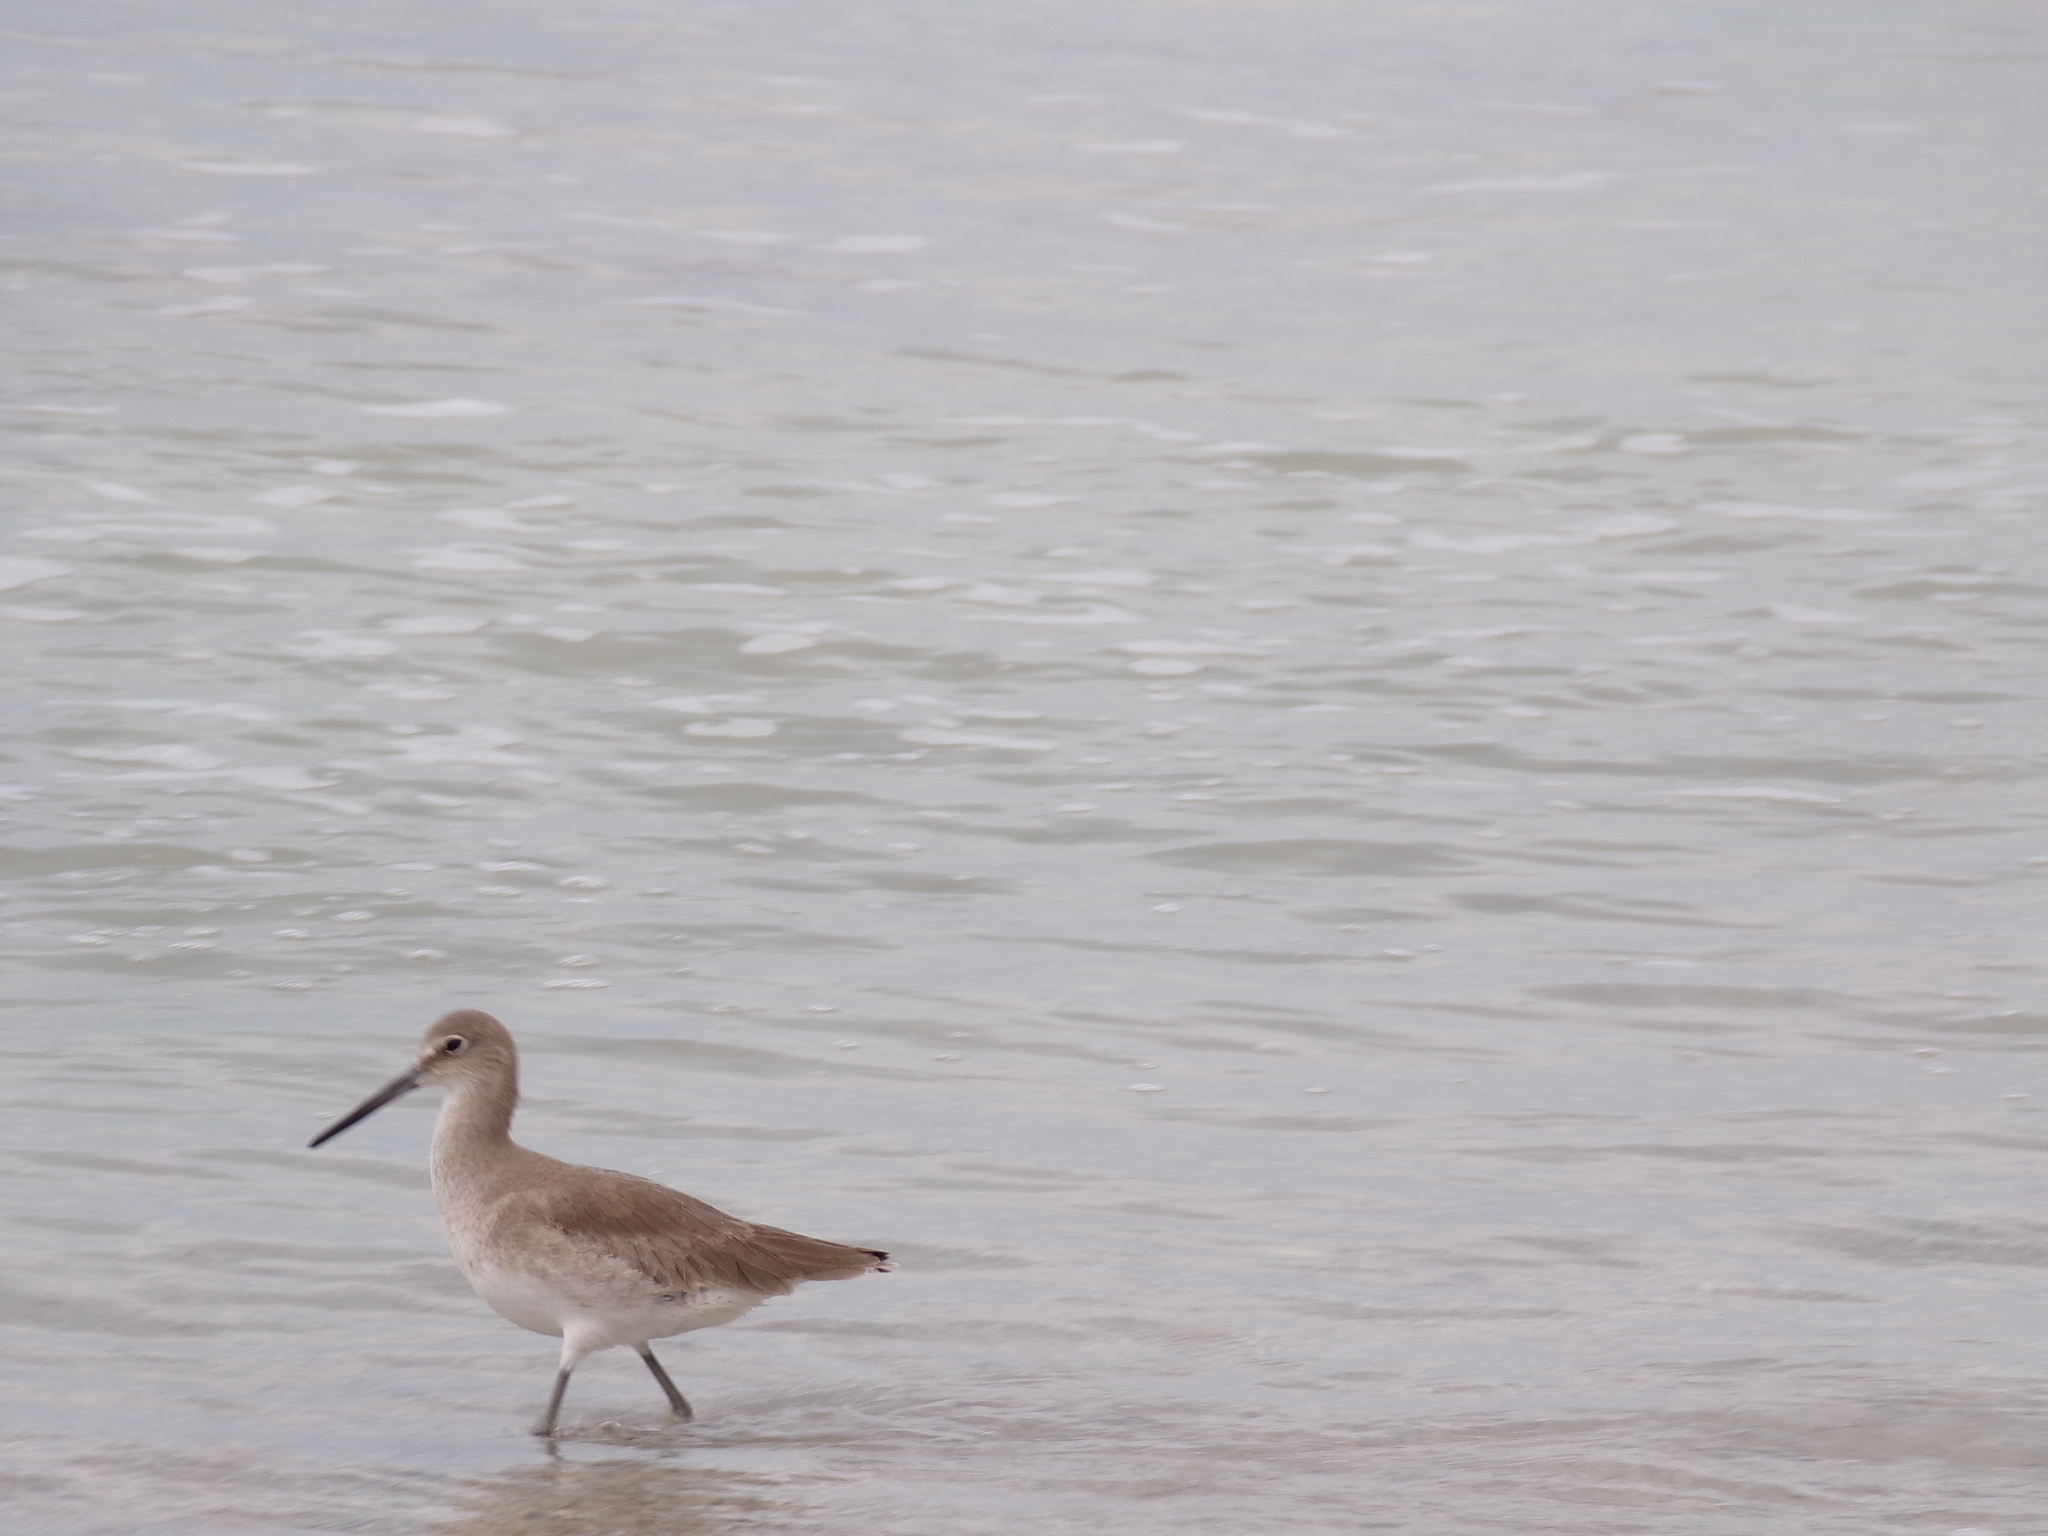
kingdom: Animalia
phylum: Chordata
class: Aves
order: Charadriiformes
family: Scolopacidae
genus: Tringa
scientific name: Tringa semipalmata
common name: Willet
